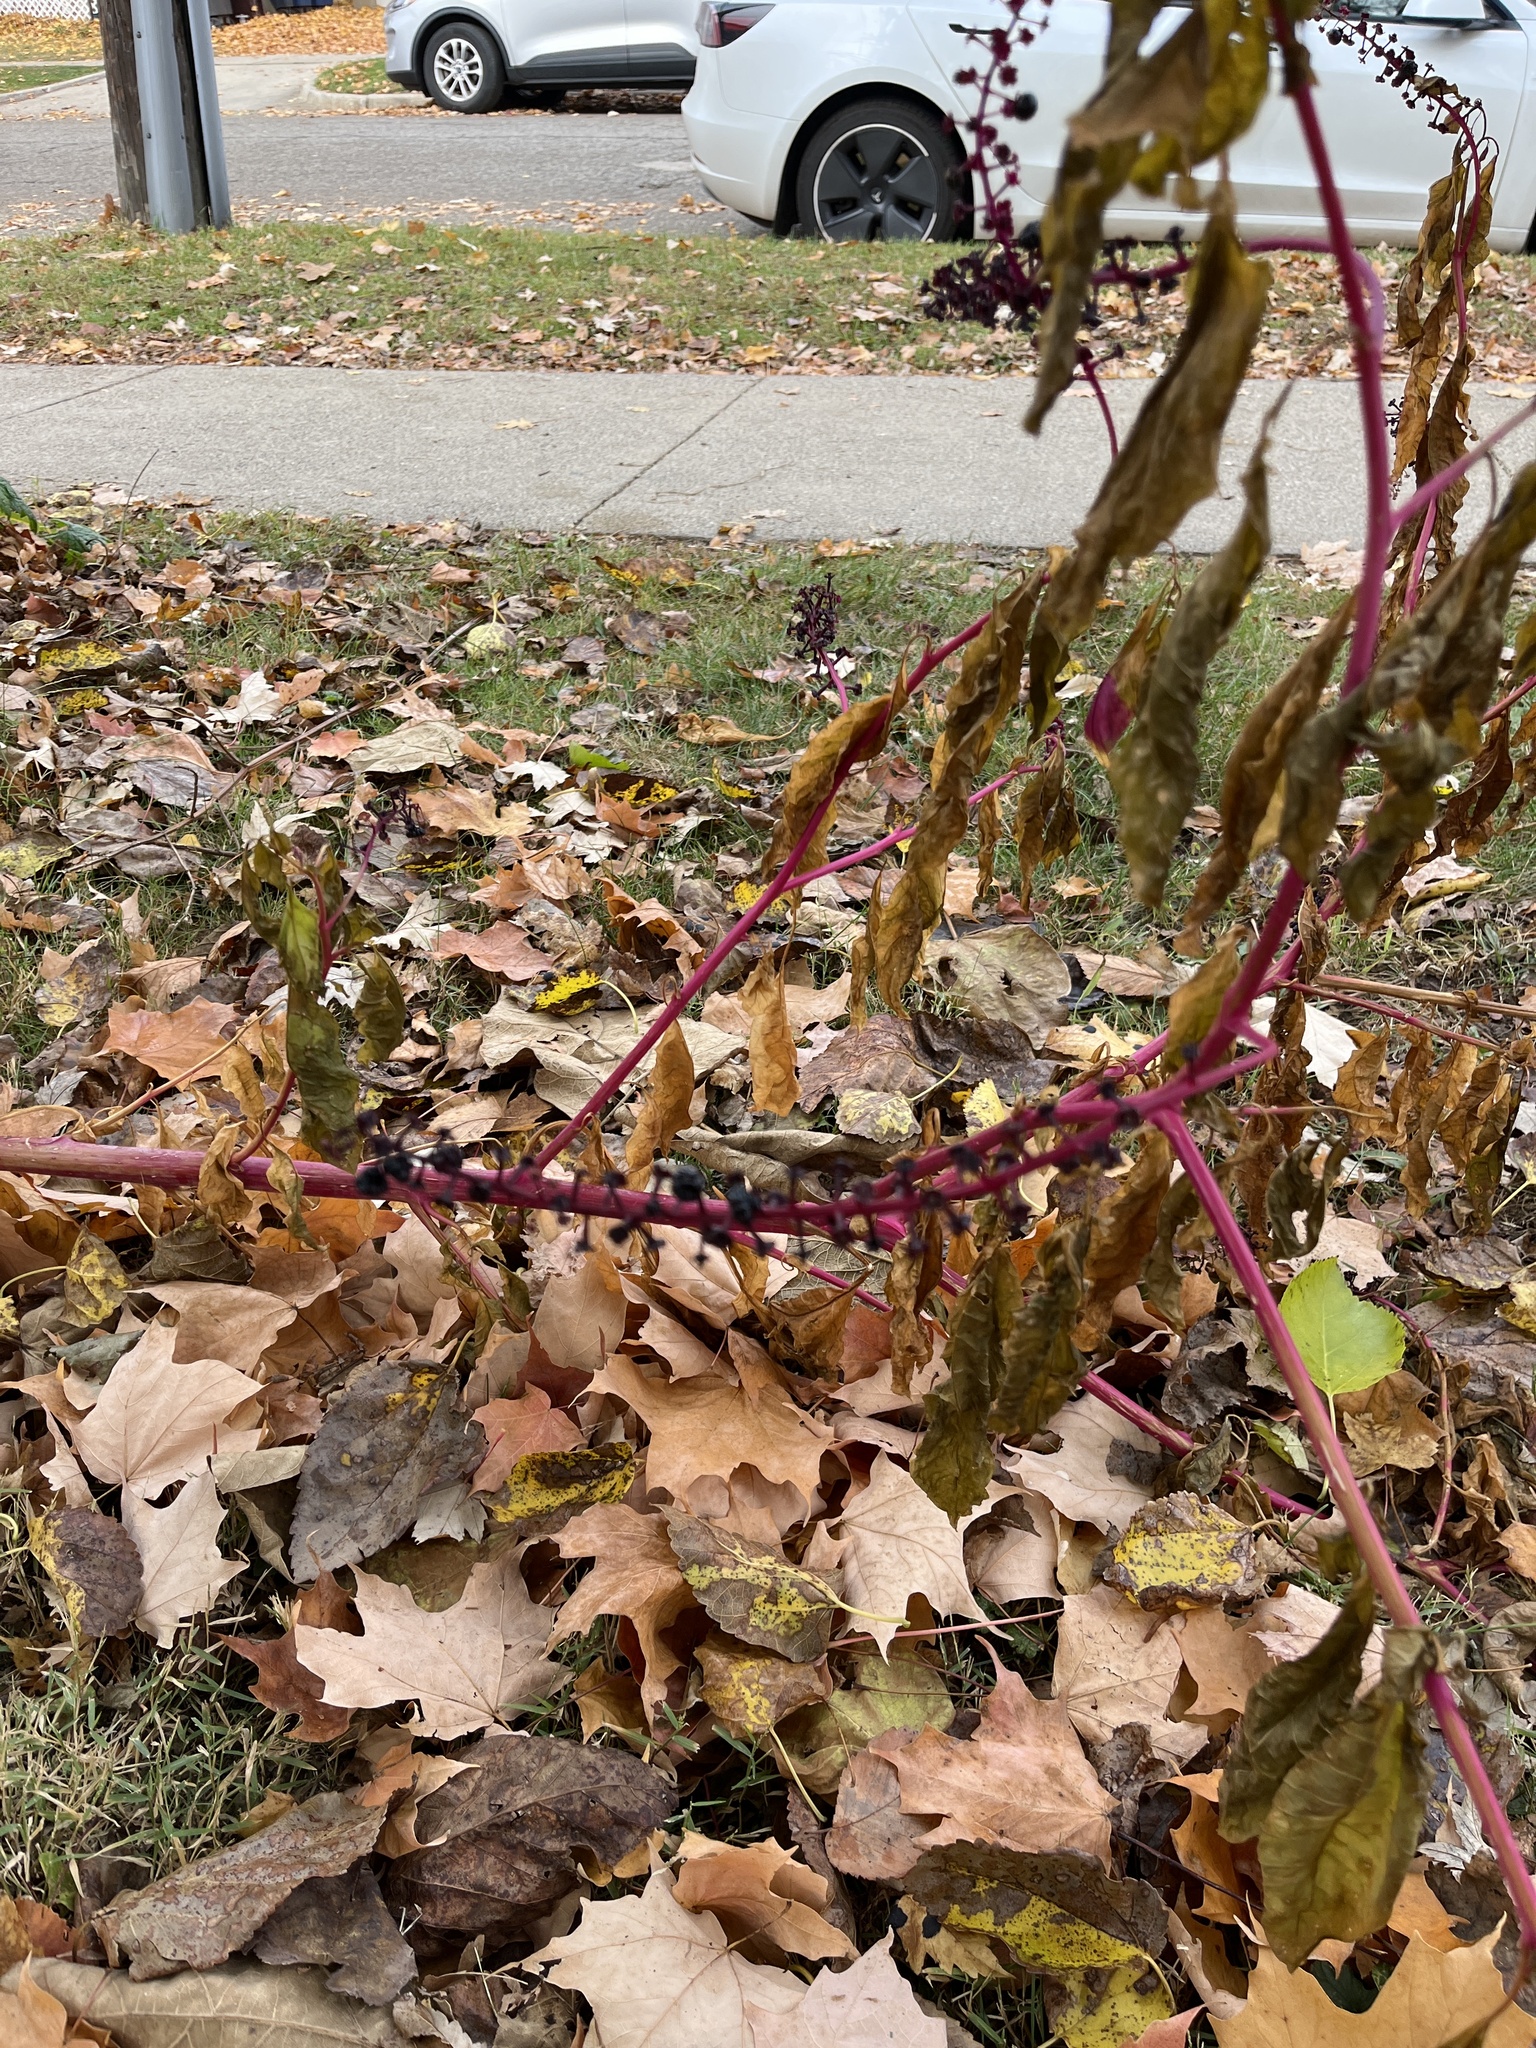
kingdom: Plantae
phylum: Tracheophyta
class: Magnoliopsida
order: Caryophyllales
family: Phytolaccaceae
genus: Phytolacca
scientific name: Phytolacca americana
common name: American pokeweed
